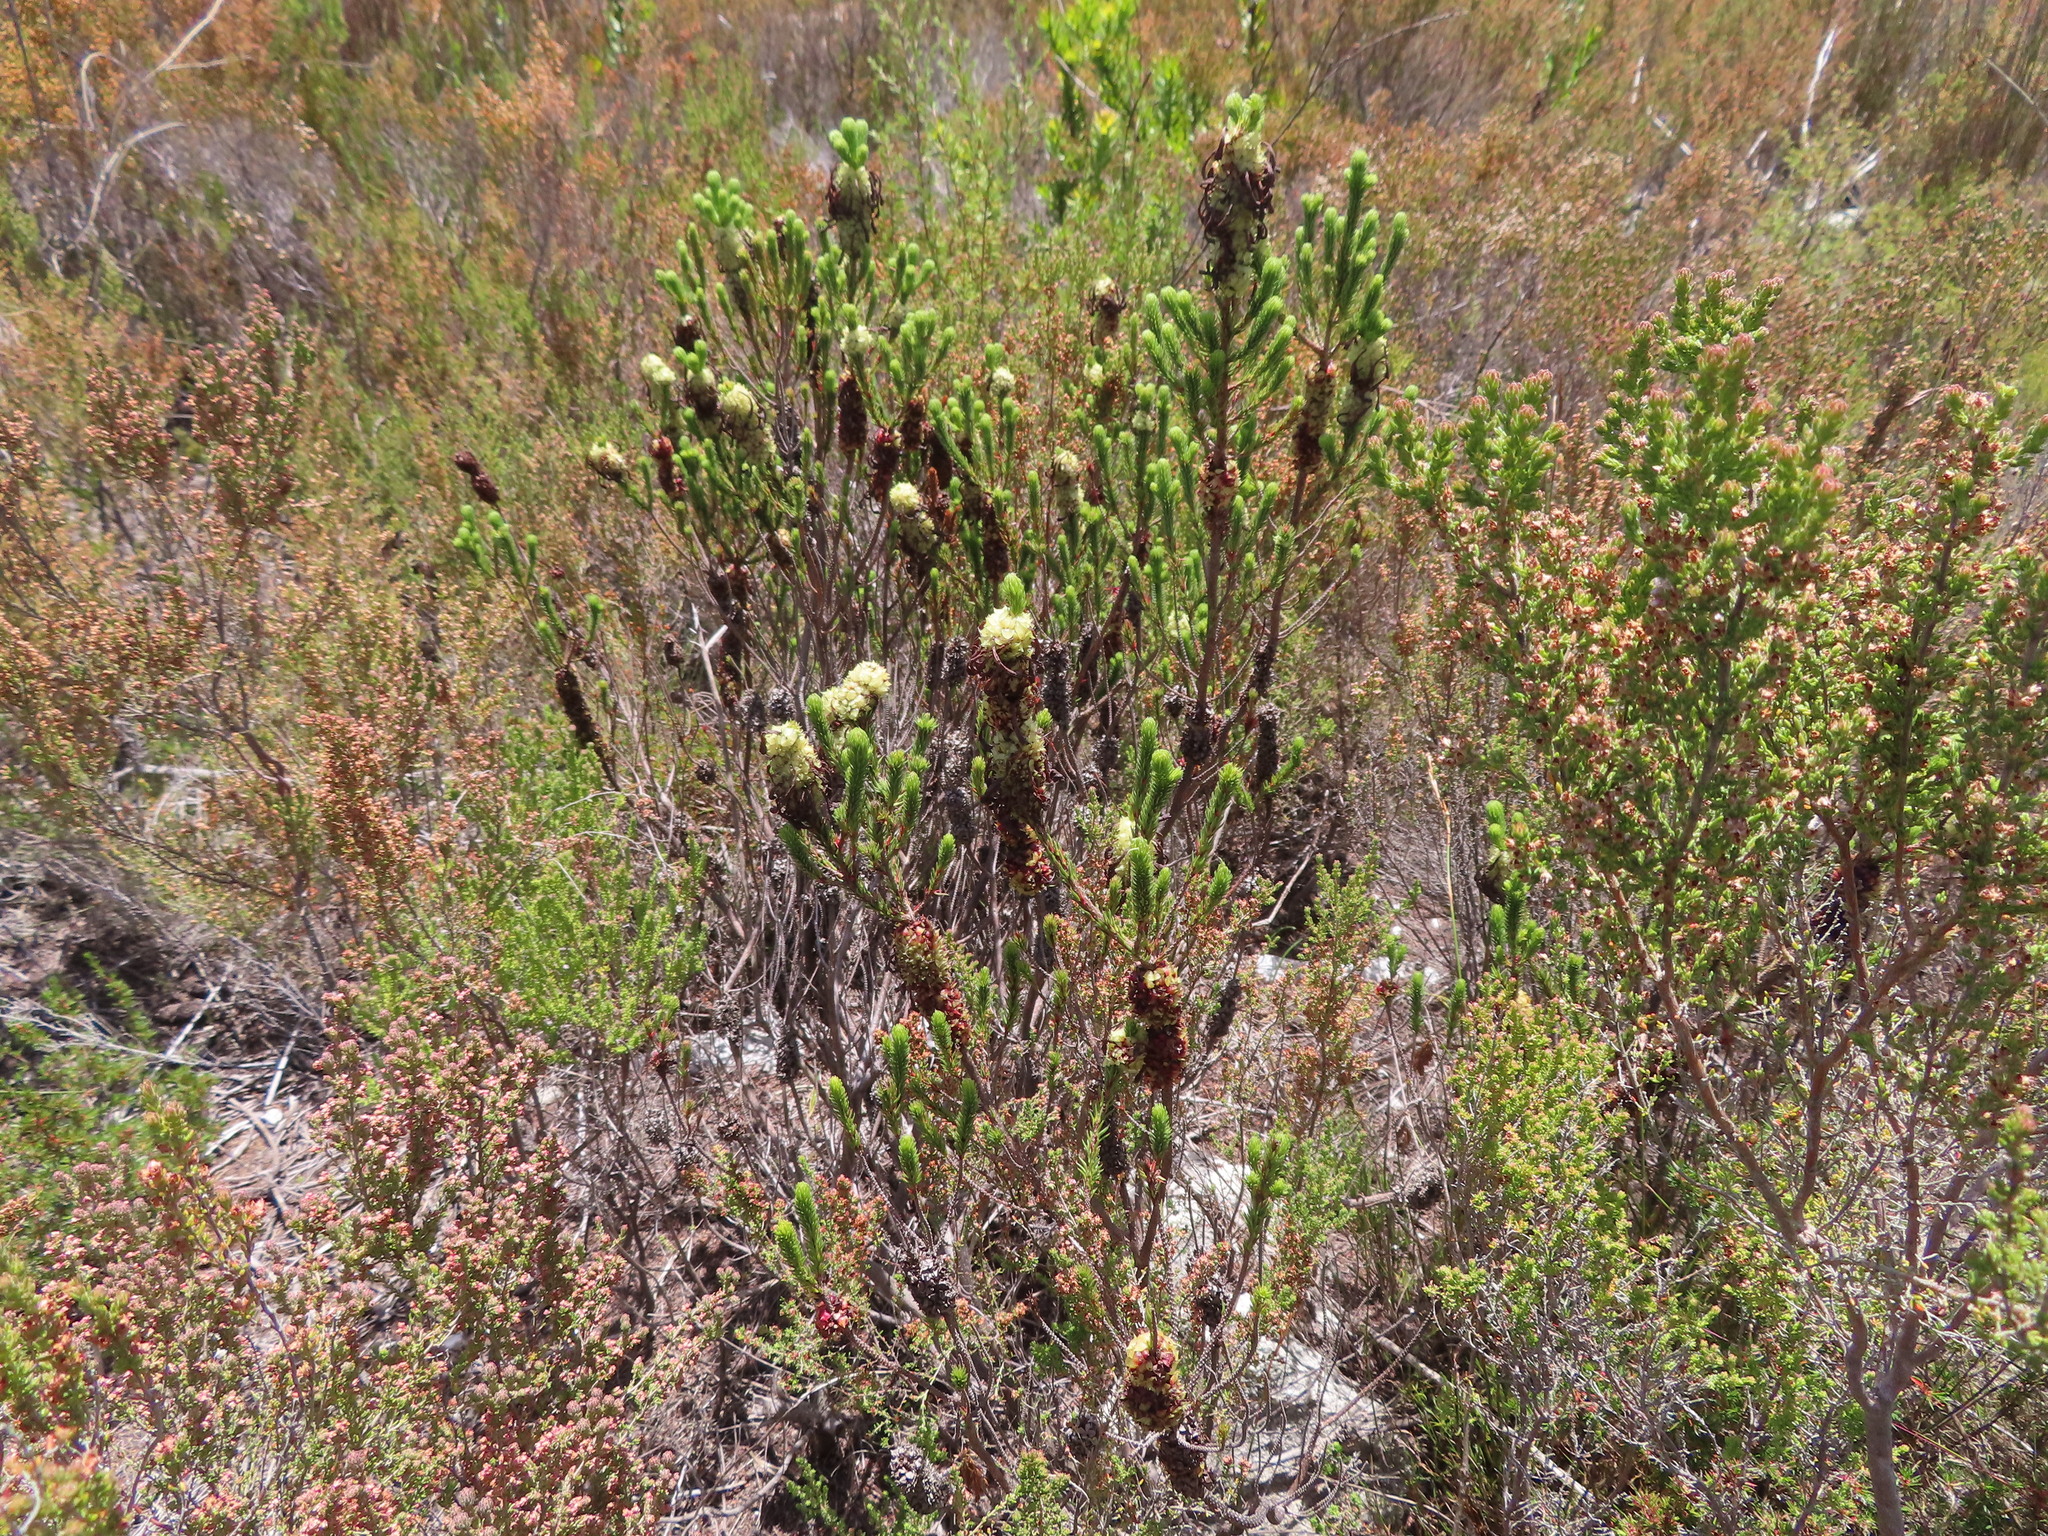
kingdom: Plantae
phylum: Tracheophyta
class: Magnoliopsida
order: Ericales
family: Ericaceae
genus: Erica
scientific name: Erica sessiliflora
